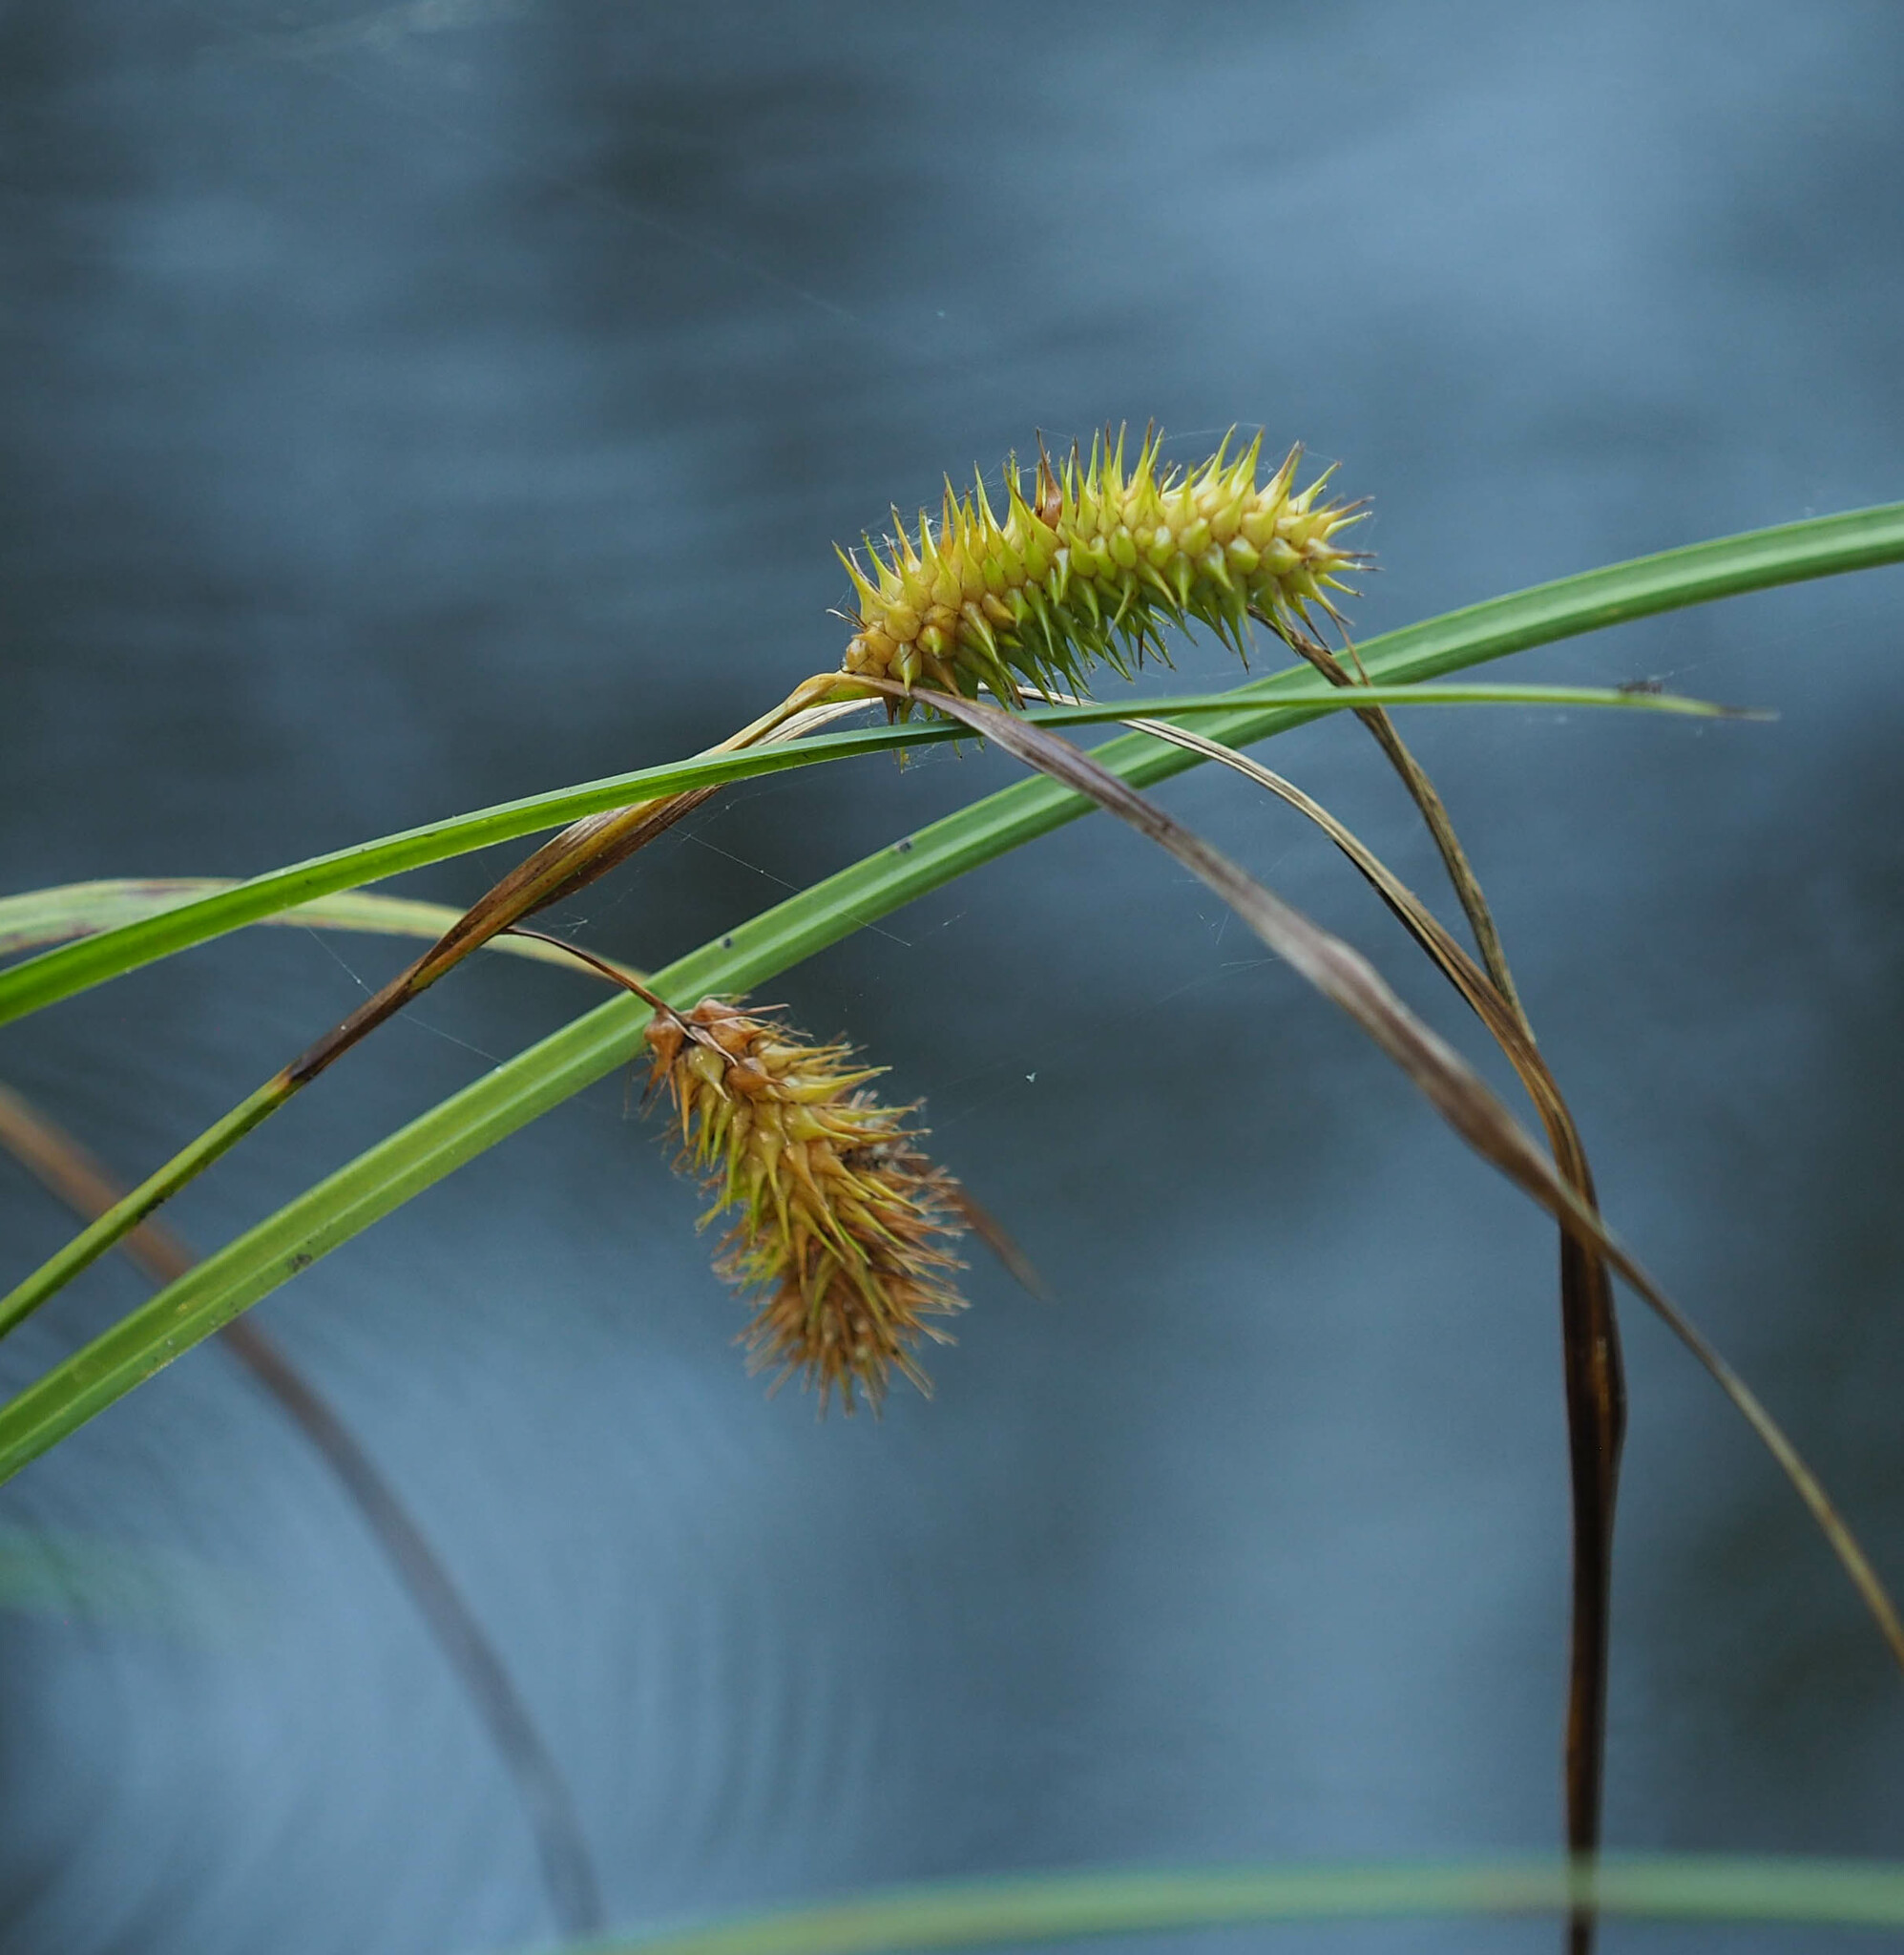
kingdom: Plantae
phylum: Tracheophyta
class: Liliopsida
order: Poales
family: Cyperaceae
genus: Carex
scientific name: Carex lurida
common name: Sallow sedge
